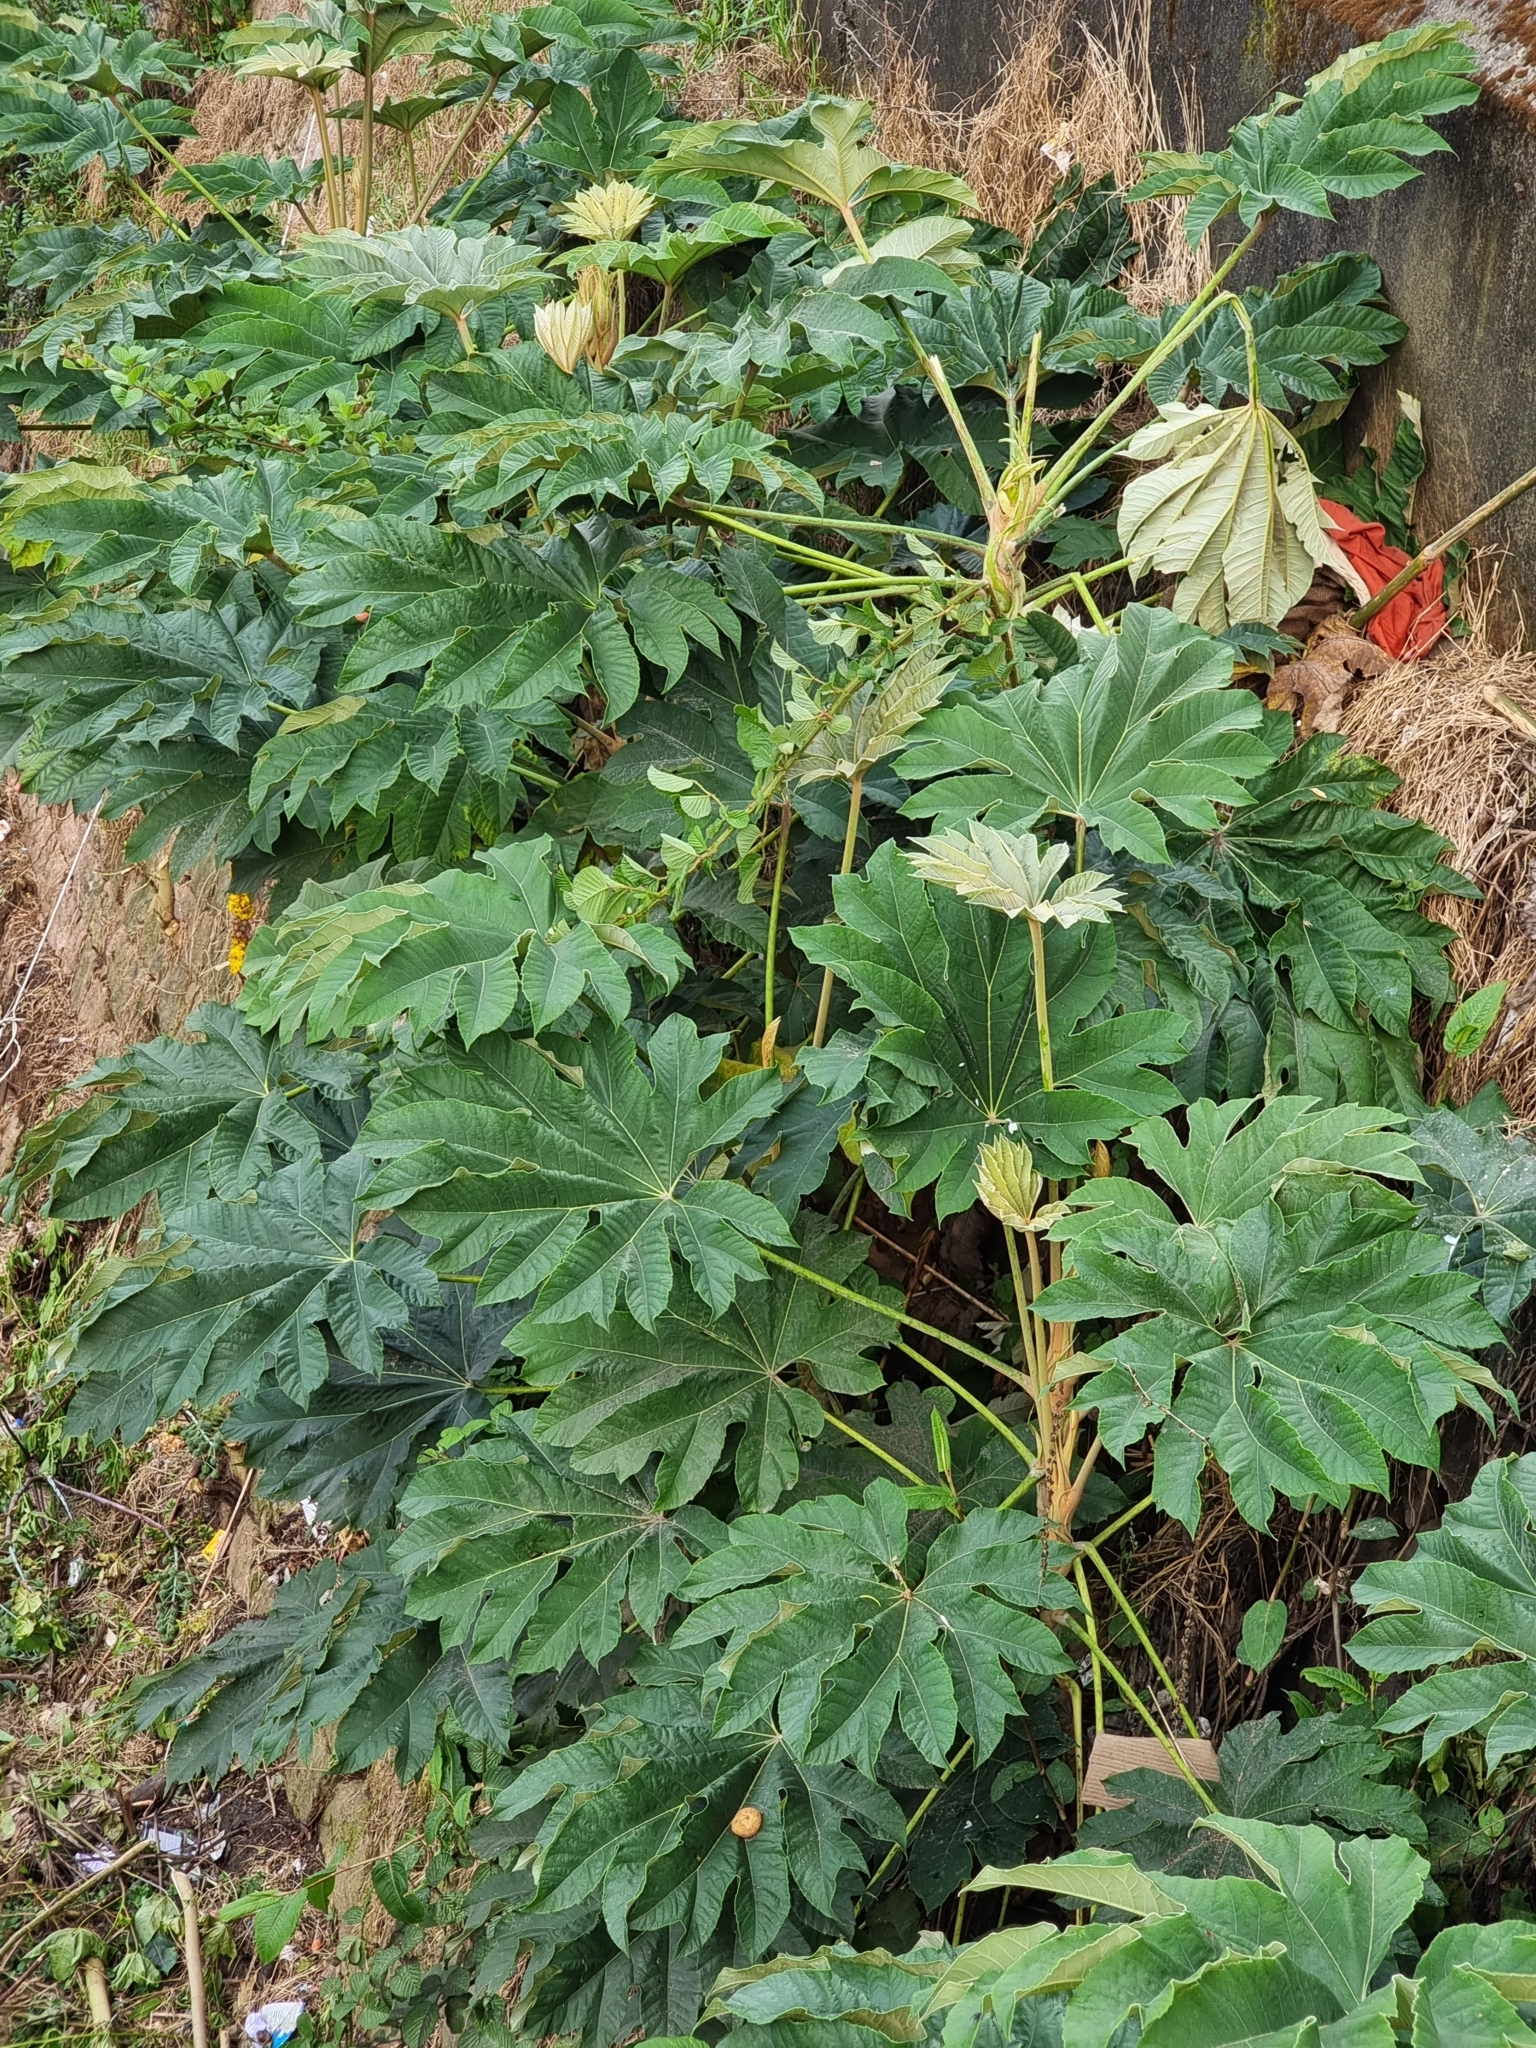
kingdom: Plantae
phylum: Tracheophyta
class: Magnoliopsida
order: Apiales
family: Araliaceae
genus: Tetrapanax
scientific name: Tetrapanax papyrifer
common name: Rice-paper plant
